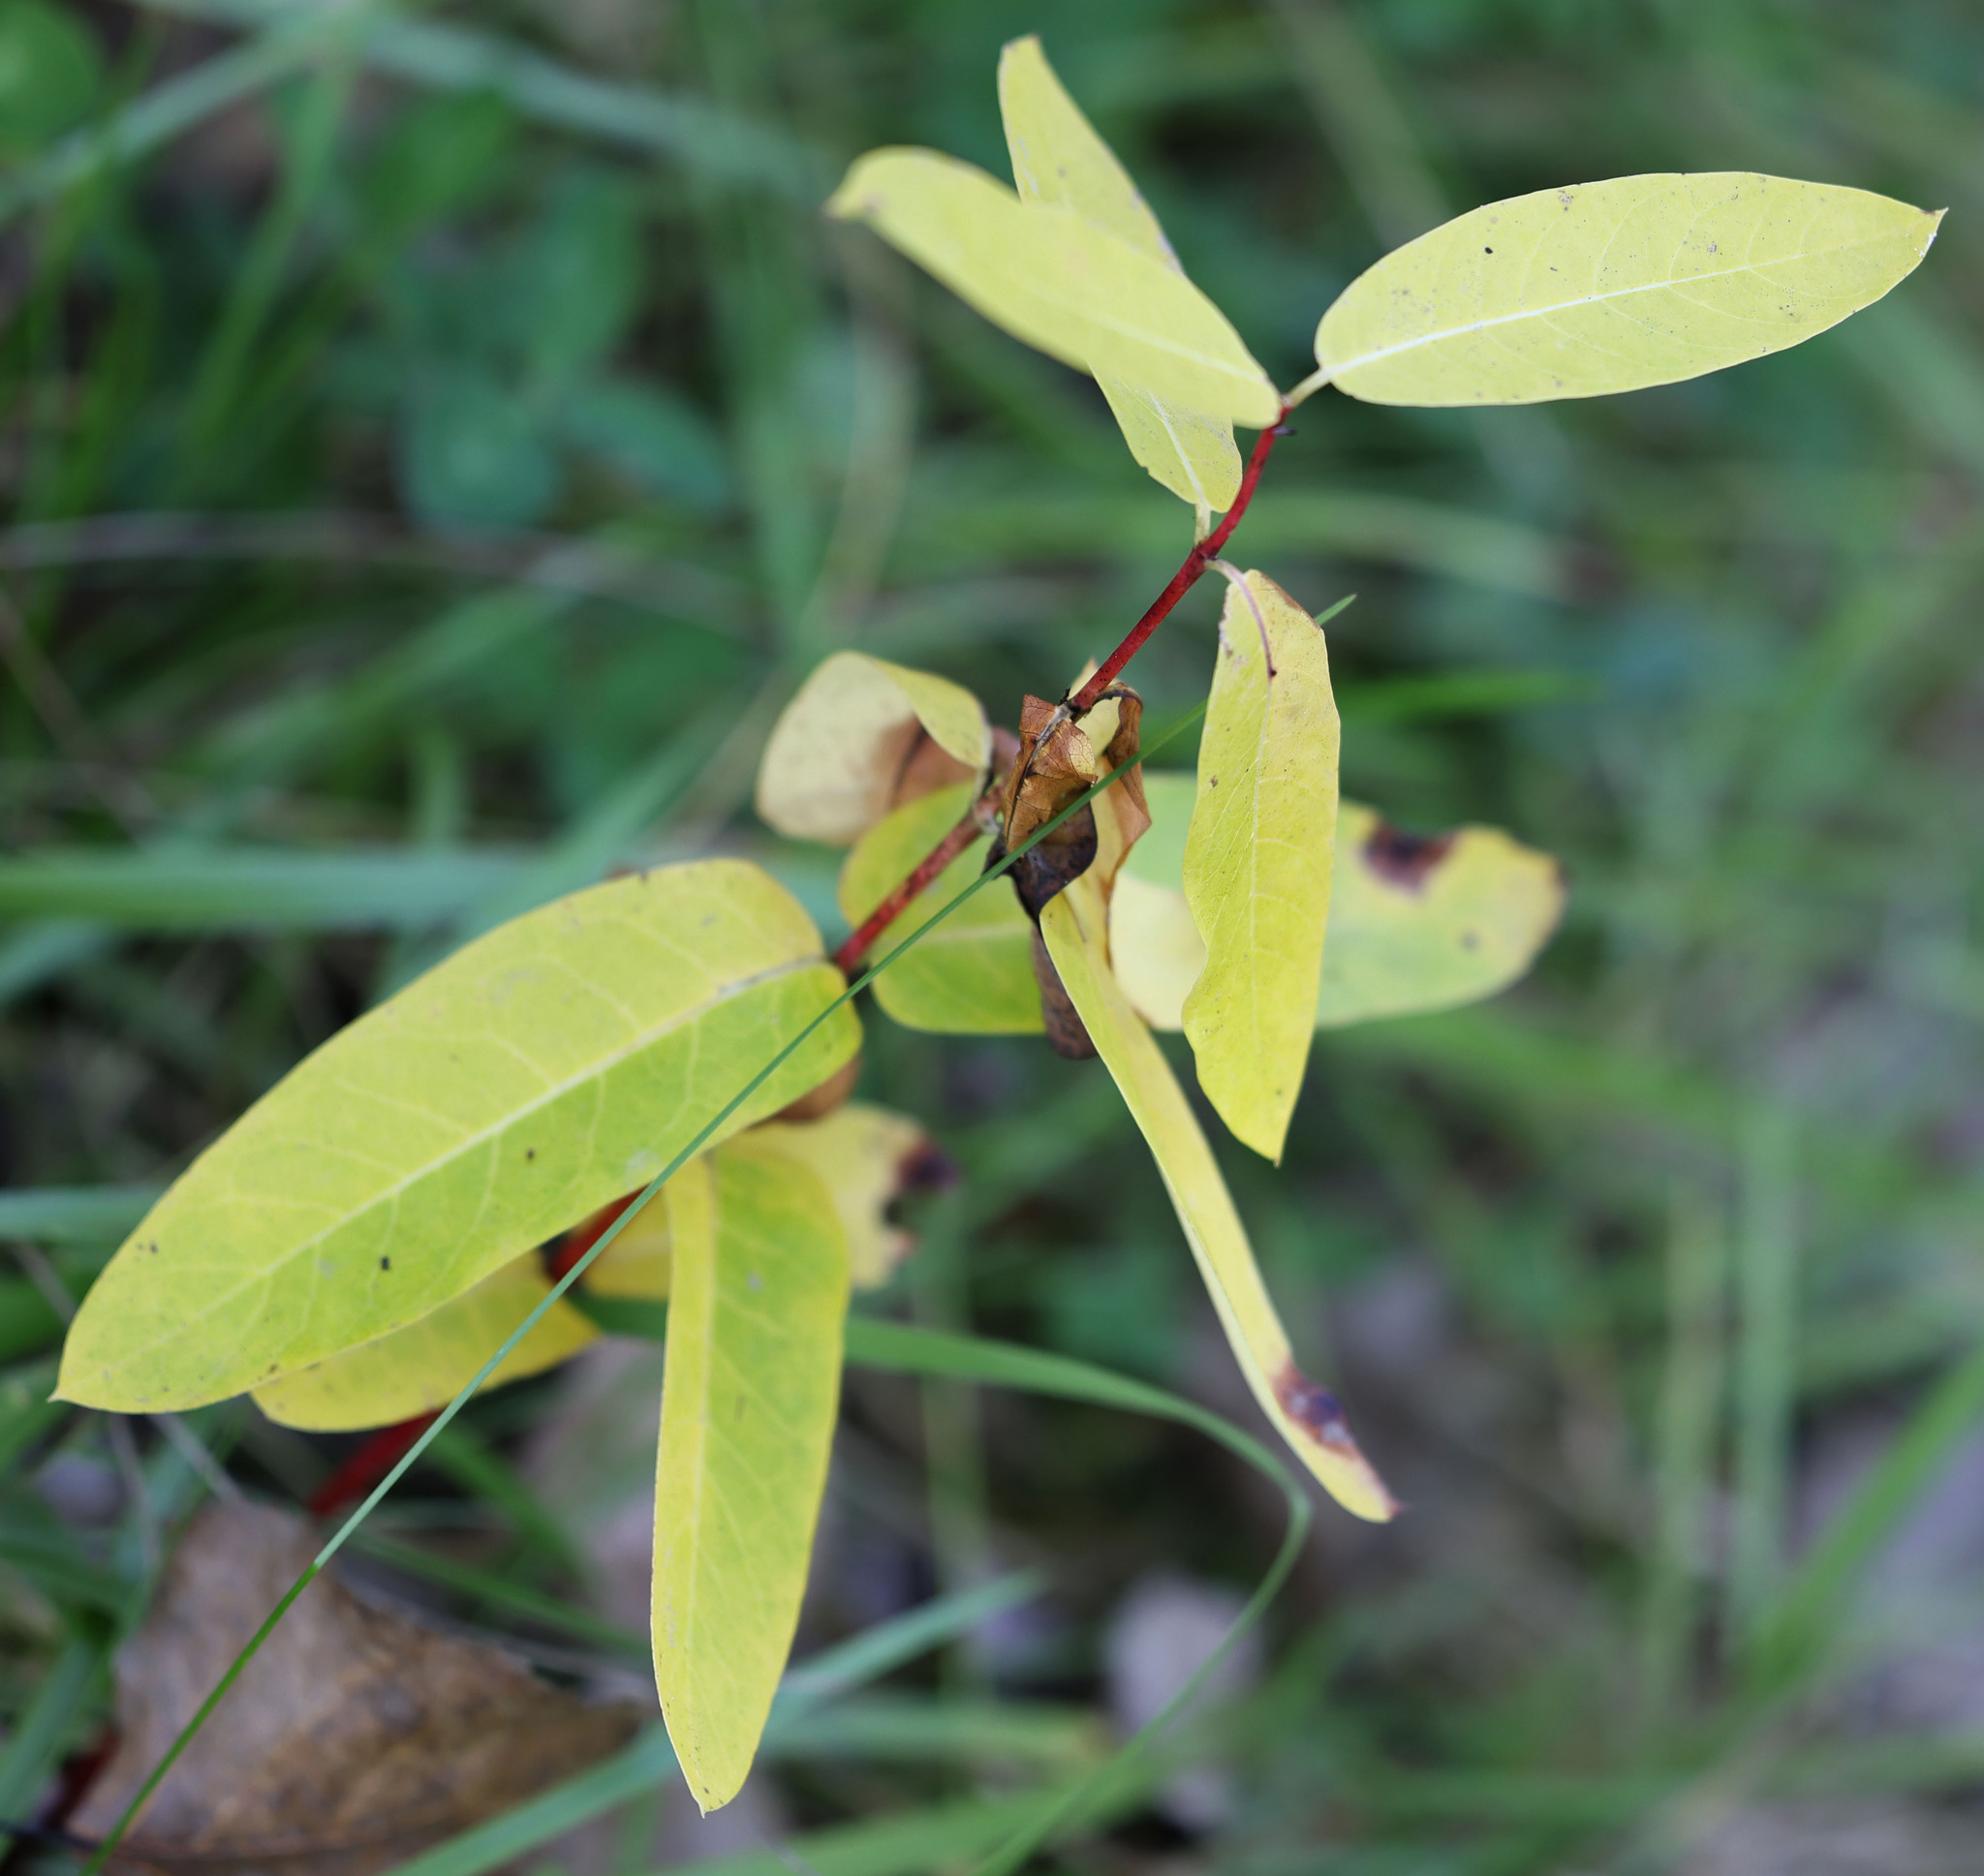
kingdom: Plantae
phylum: Tracheophyta
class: Magnoliopsida
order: Gentianales
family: Apocynaceae
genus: Apocynum
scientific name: Apocynum cannabinum
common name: Hemp dogbane
